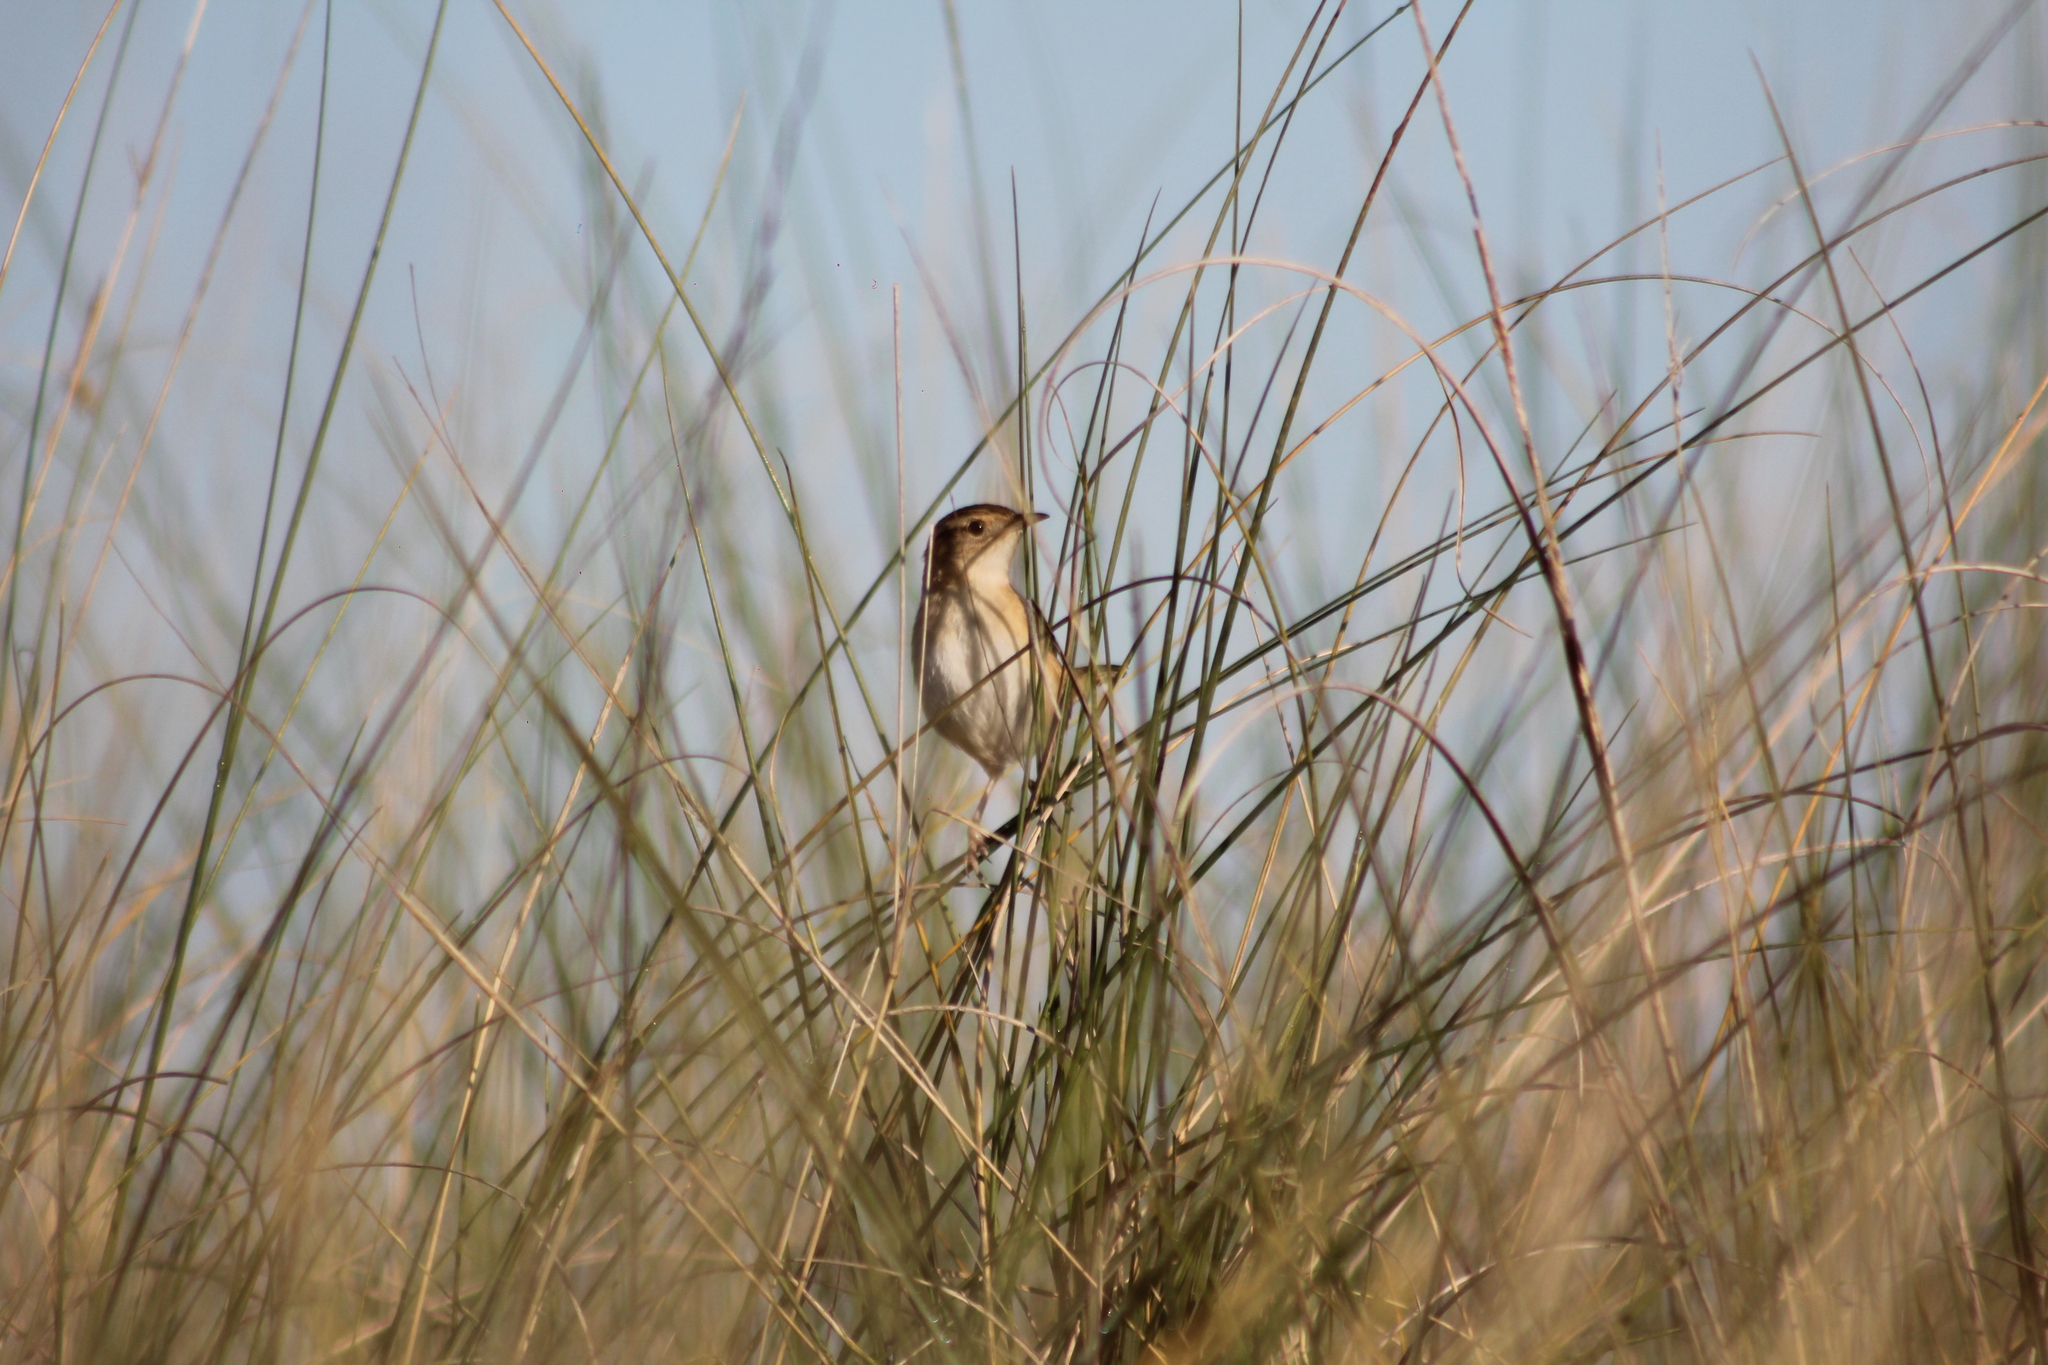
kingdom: Animalia
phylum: Chordata
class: Aves
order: Passeriformes
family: Troglodytidae
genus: Cistothorus
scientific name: Cistothorus platensis
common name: Sedge wren
